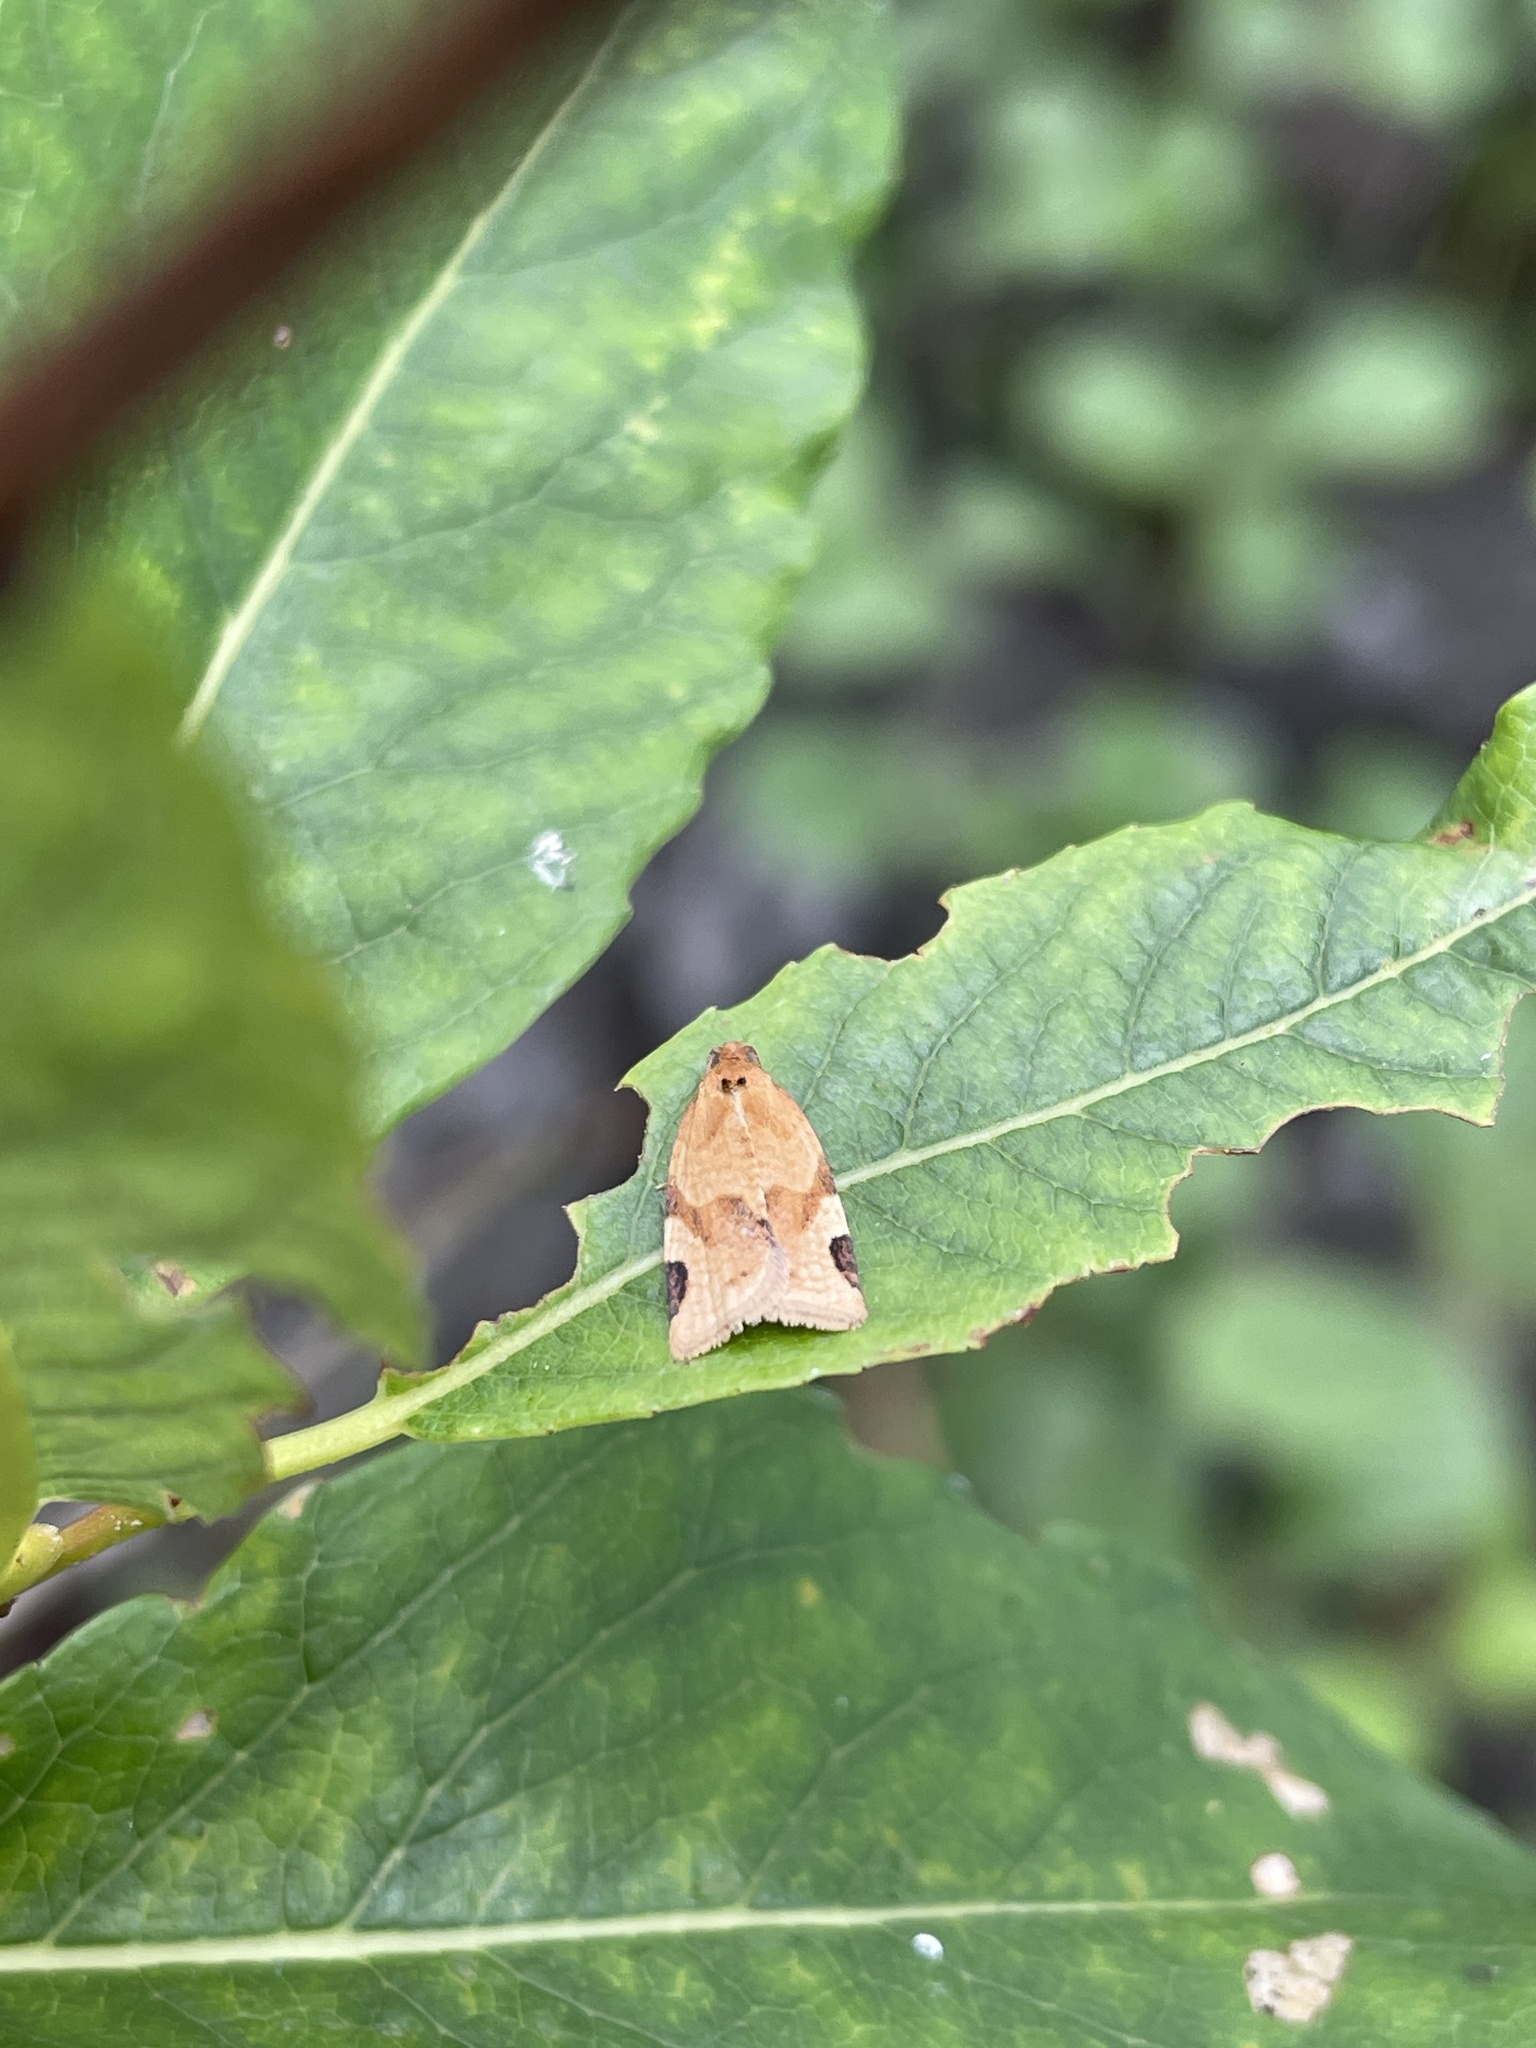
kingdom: Animalia
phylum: Arthropoda
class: Insecta
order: Lepidoptera
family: Tortricidae
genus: Paramesia
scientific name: Paramesia gnomana
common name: Small straw twist
